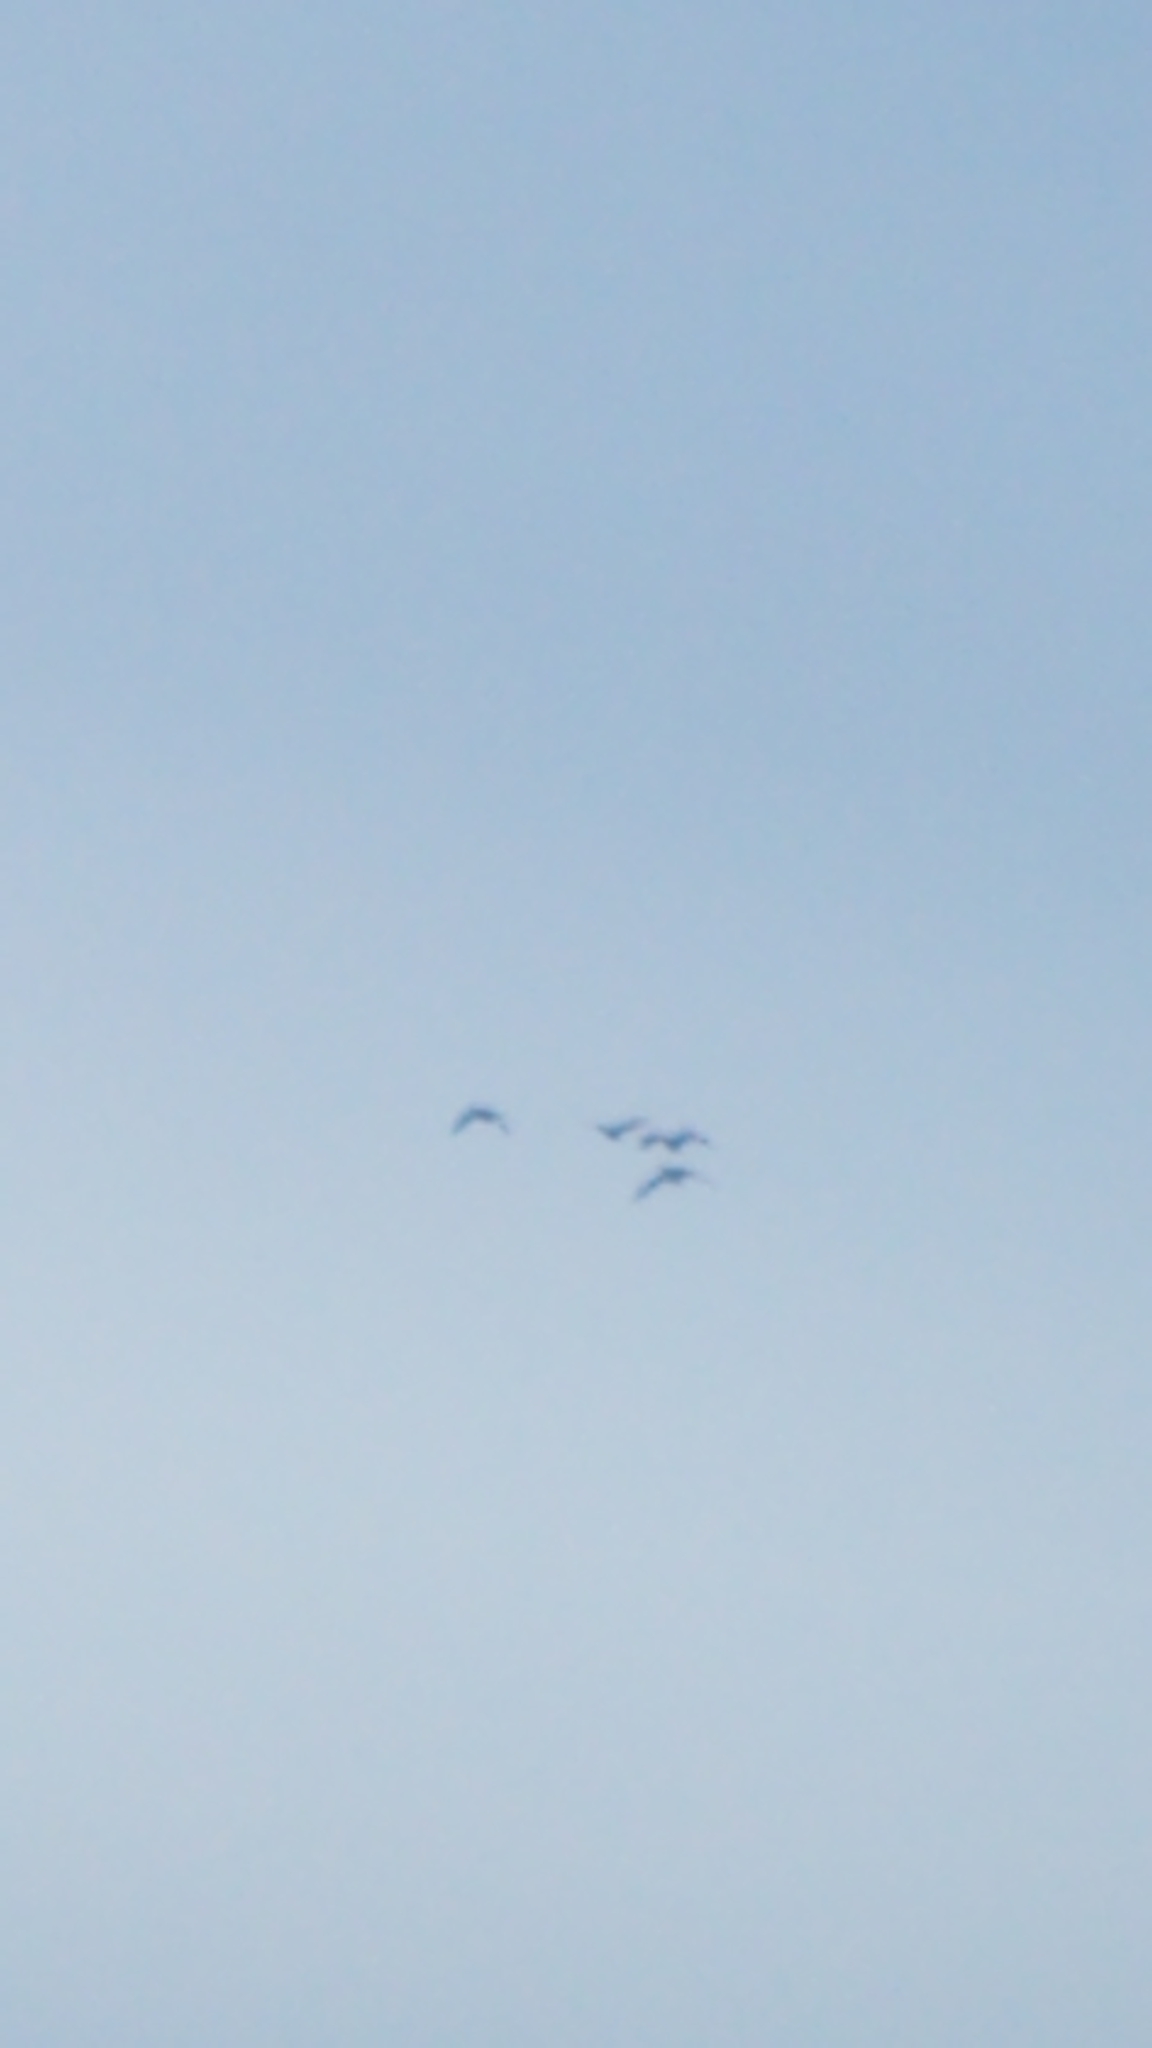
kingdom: Animalia
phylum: Chordata
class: Aves
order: Anseriformes
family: Anatidae
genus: Branta
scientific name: Branta canadensis
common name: Canada goose
